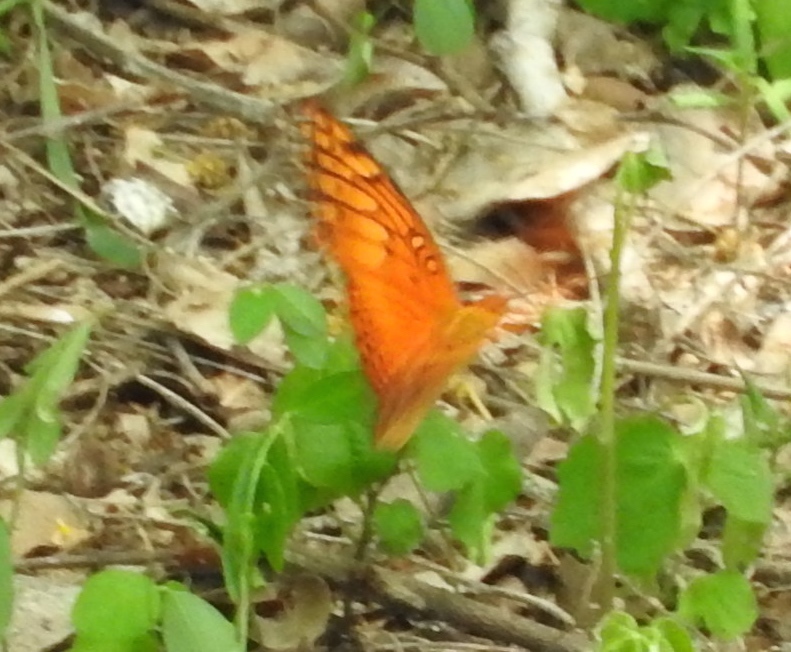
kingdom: Animalia
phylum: Arthropoda
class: Insecta
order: Lepidoptera
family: Nymphalidae
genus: Euptoieta
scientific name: Euptoieta hegesia
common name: Mexican fritillary
